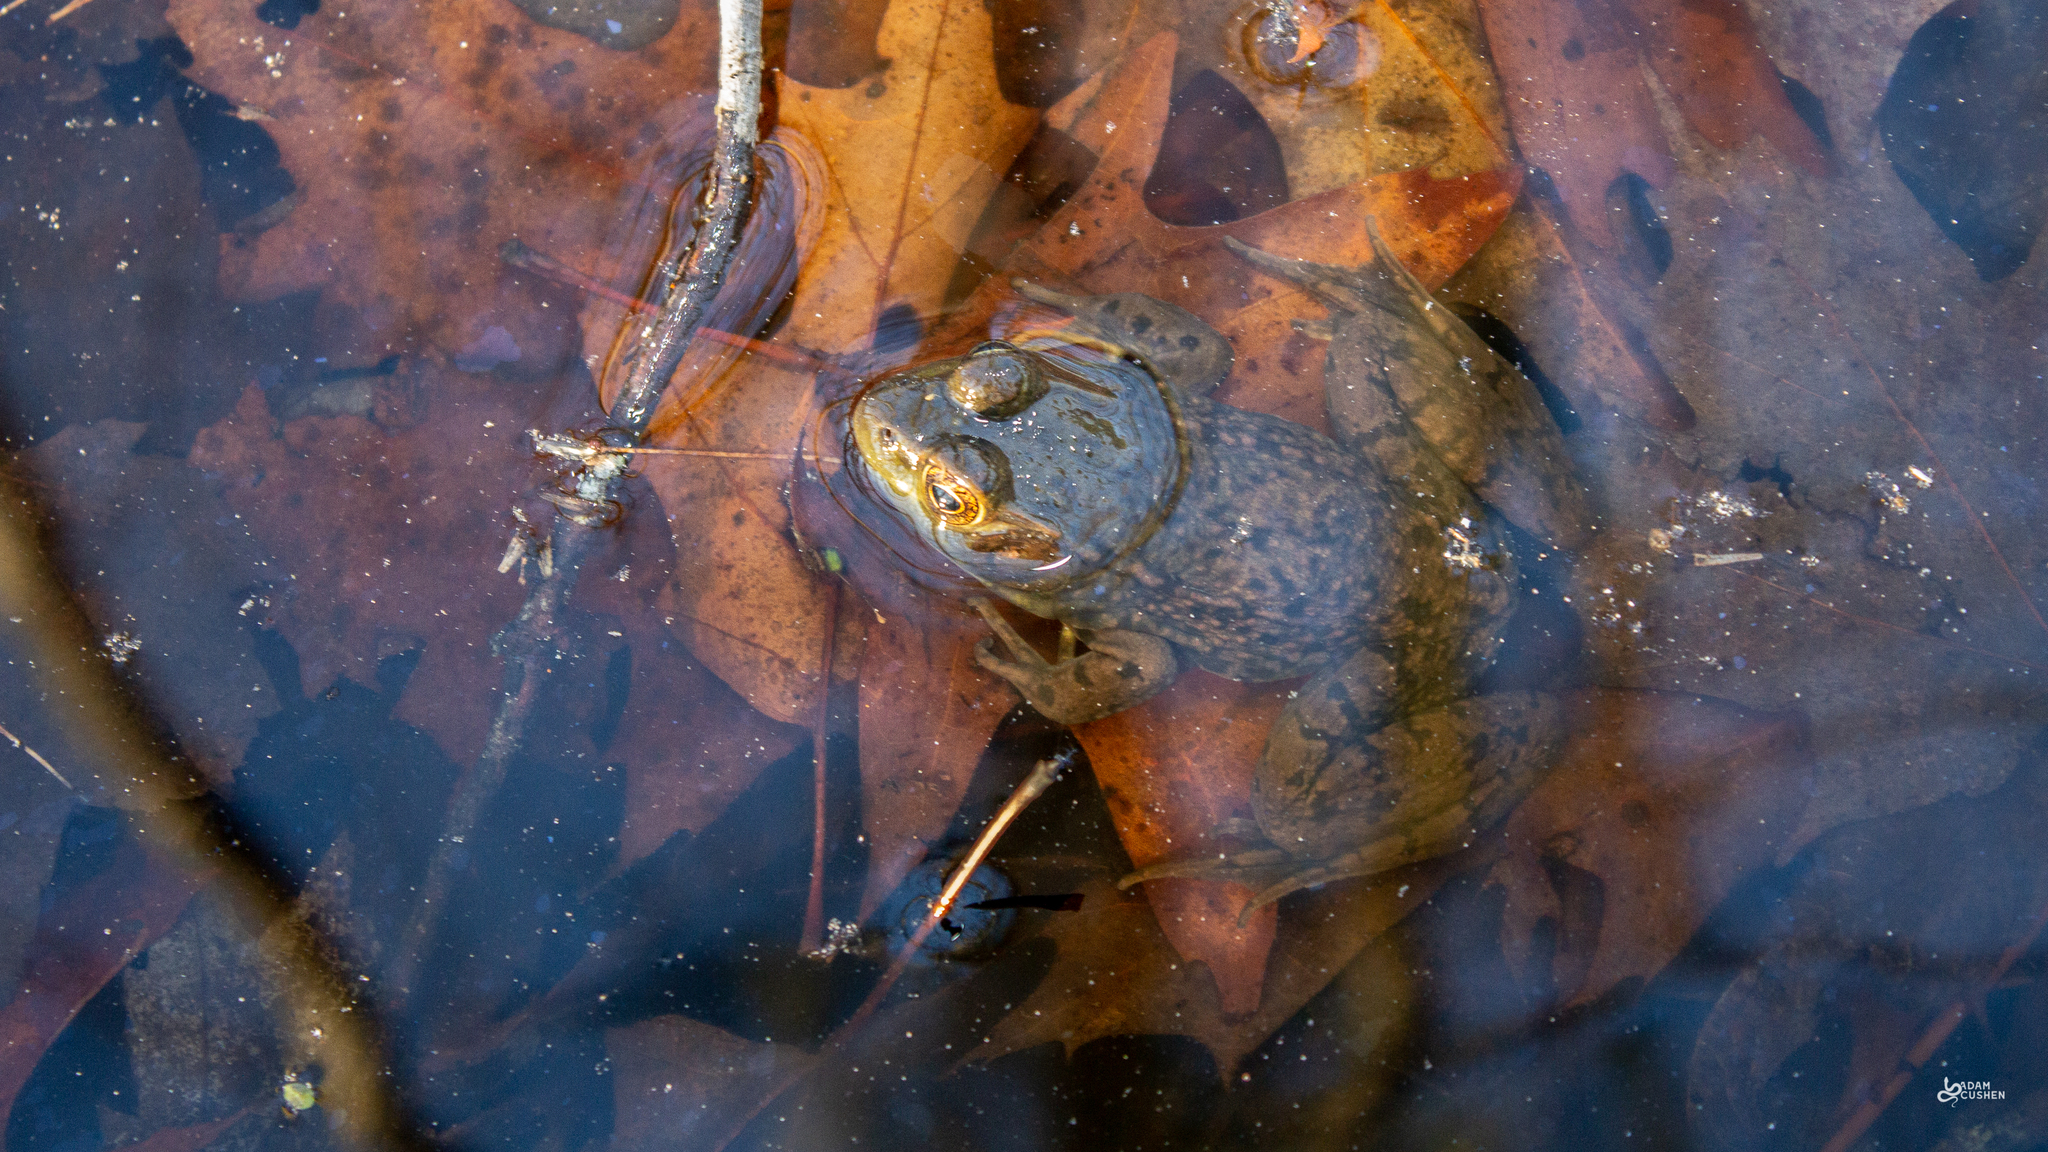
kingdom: Animalia
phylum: Chordata
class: Amphibia
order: Anura
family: Ranidae
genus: Lithobates
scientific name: Lithobates clamitans
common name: Green frog
